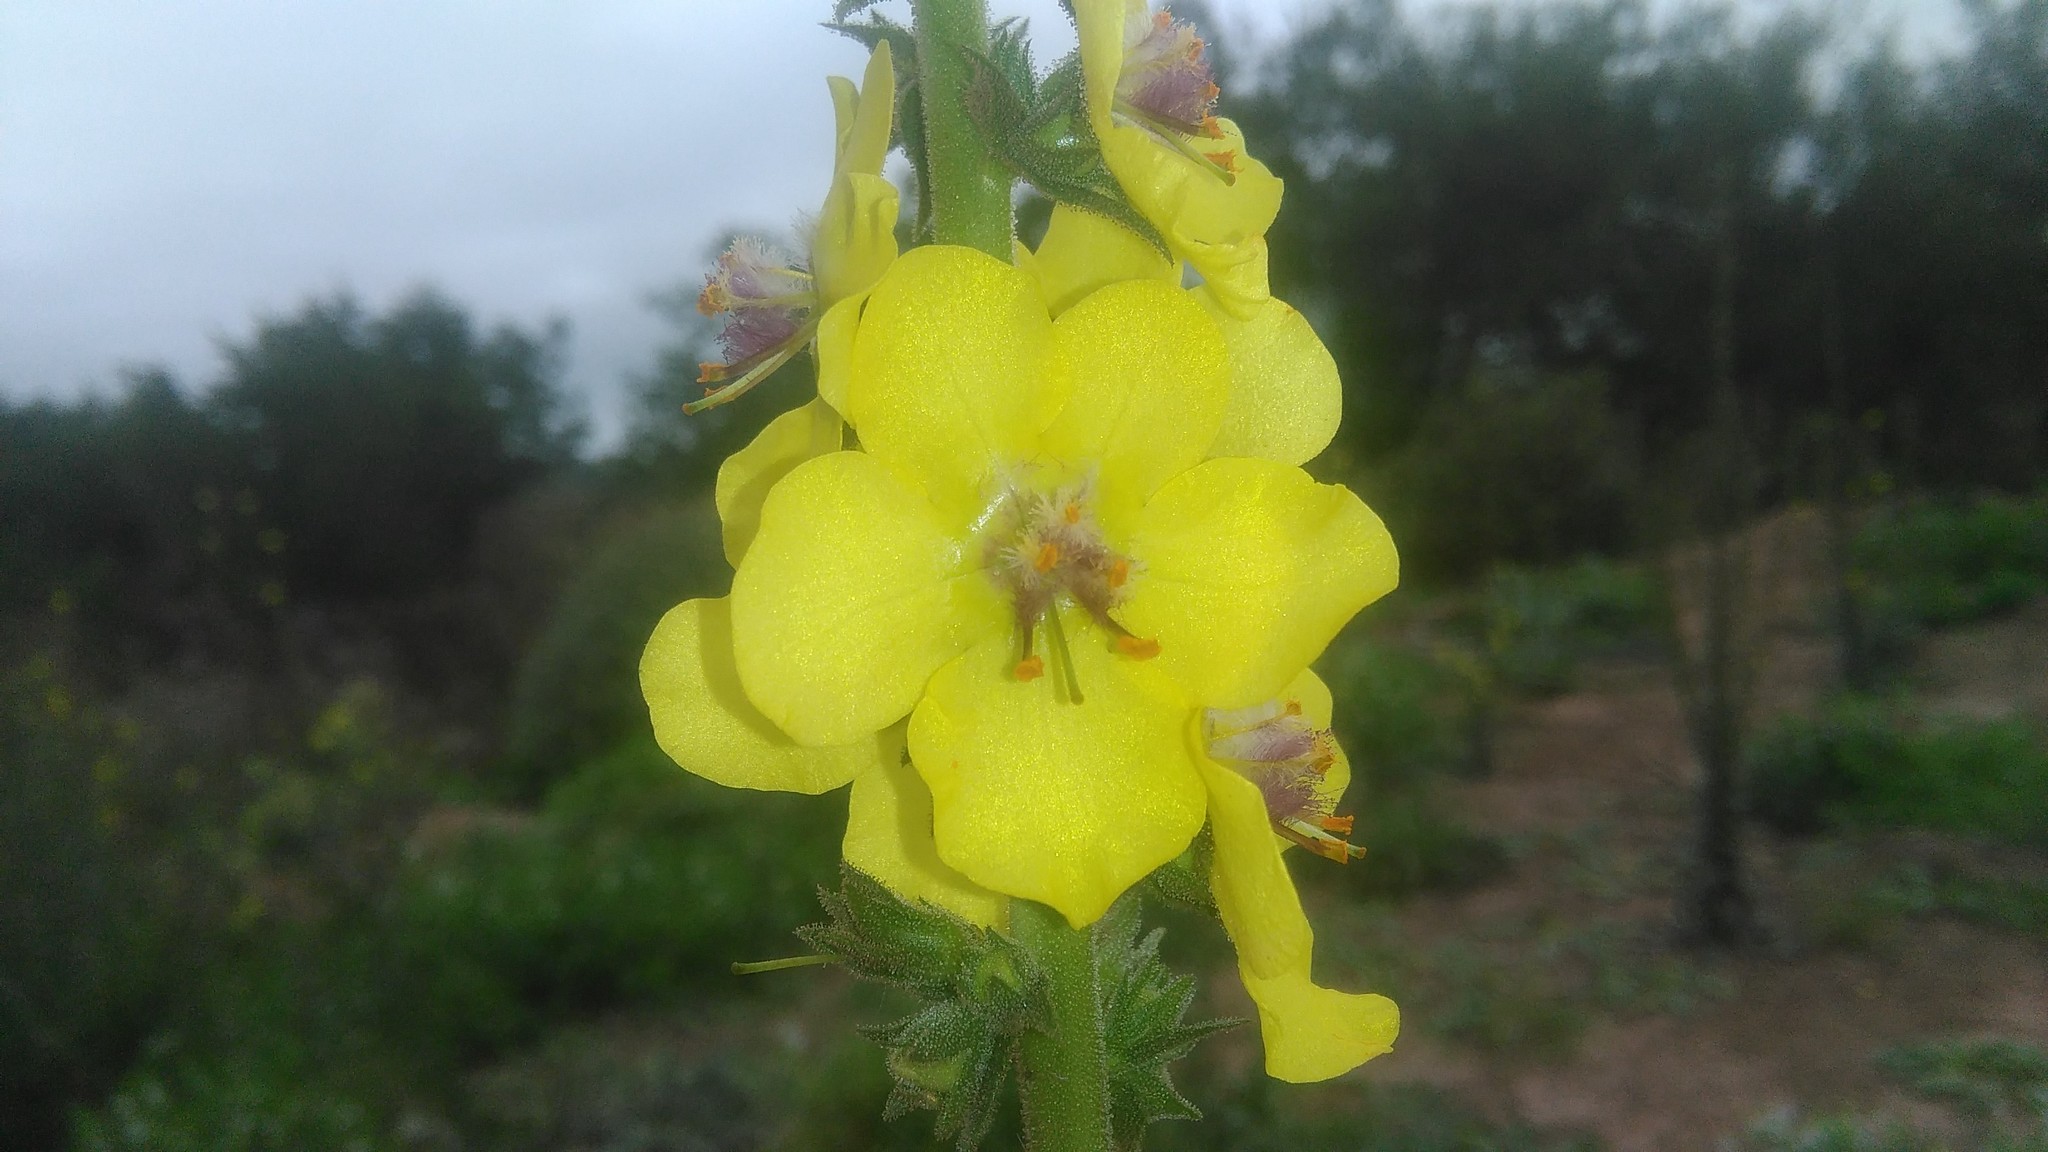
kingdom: Plantae
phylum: Tracheophyta
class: Magnoliopsida
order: Lamiales
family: Scrophulariaceae
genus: Verbascum
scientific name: Verbascum virgatum
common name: Twiggy mullein
